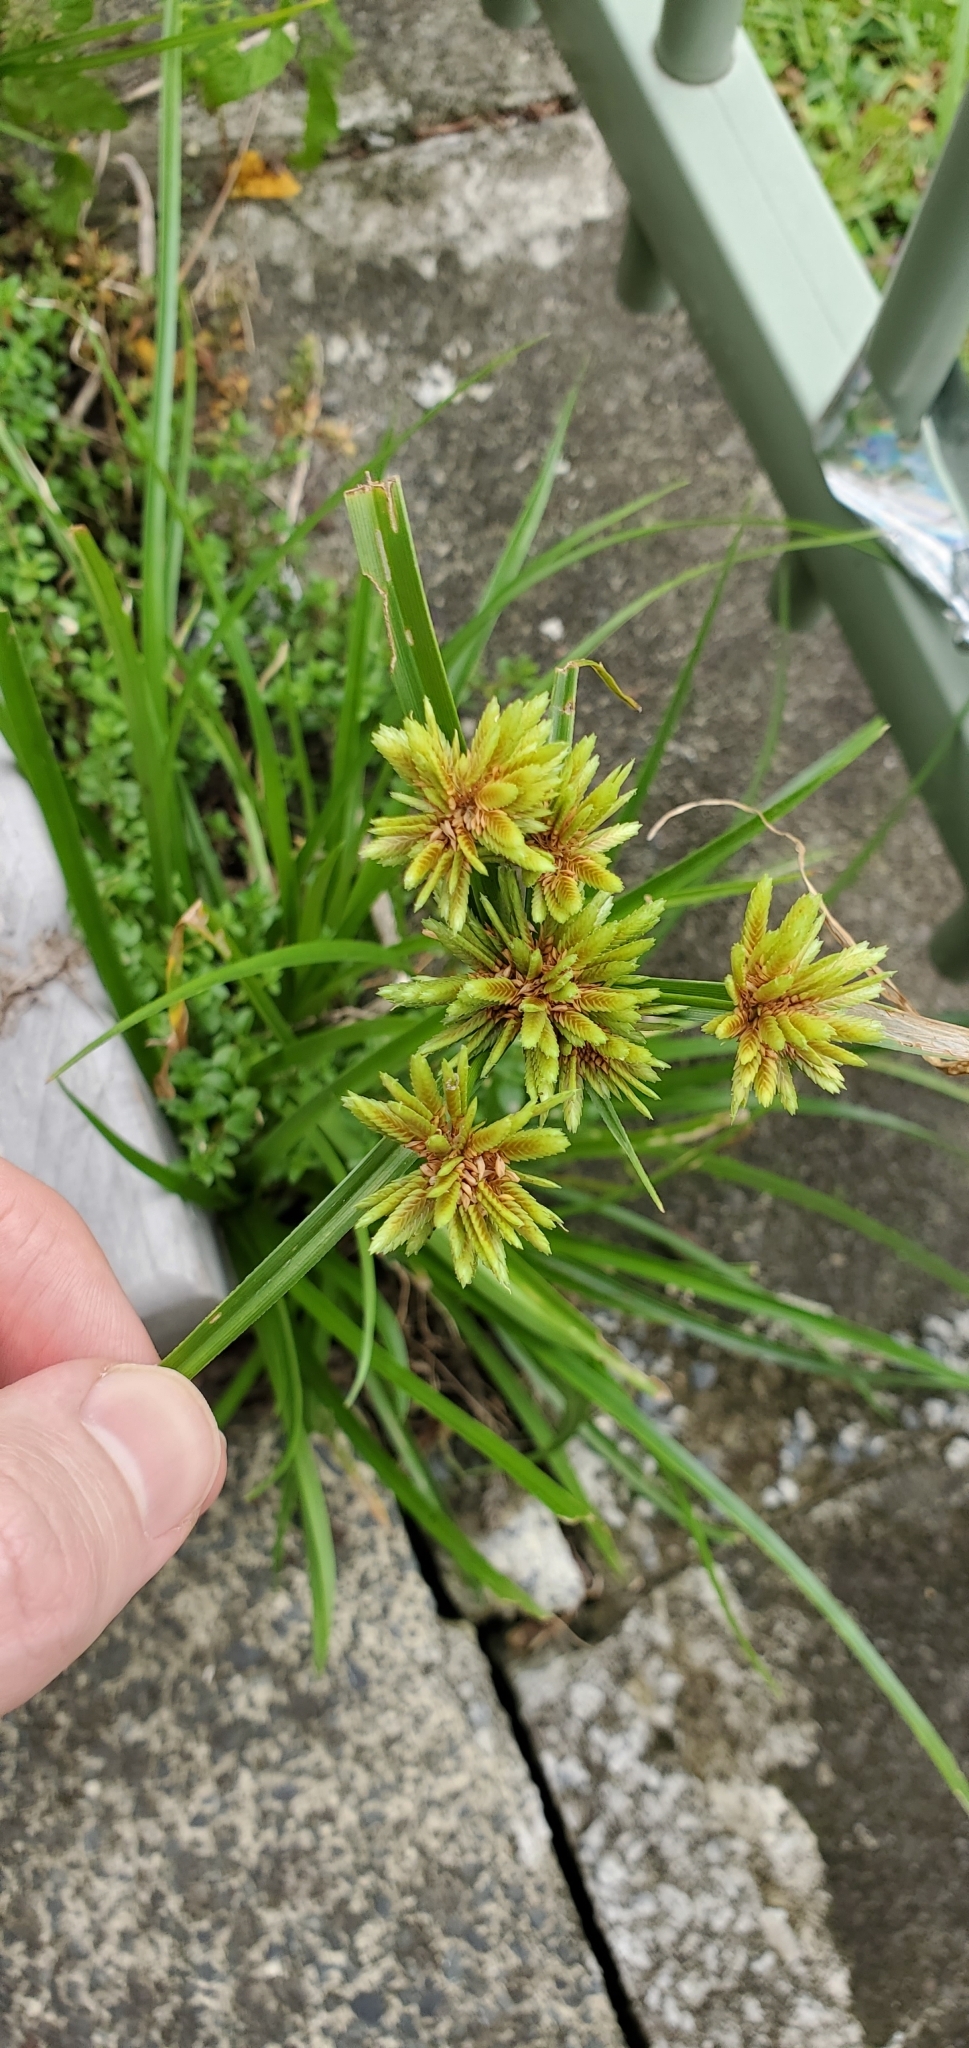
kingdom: Plantae
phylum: Tracheophyta
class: Liliopsida
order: Poales
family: Cyperaceae
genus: Cyperus
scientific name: Cyperus eragrostis
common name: Tall flatsedge
